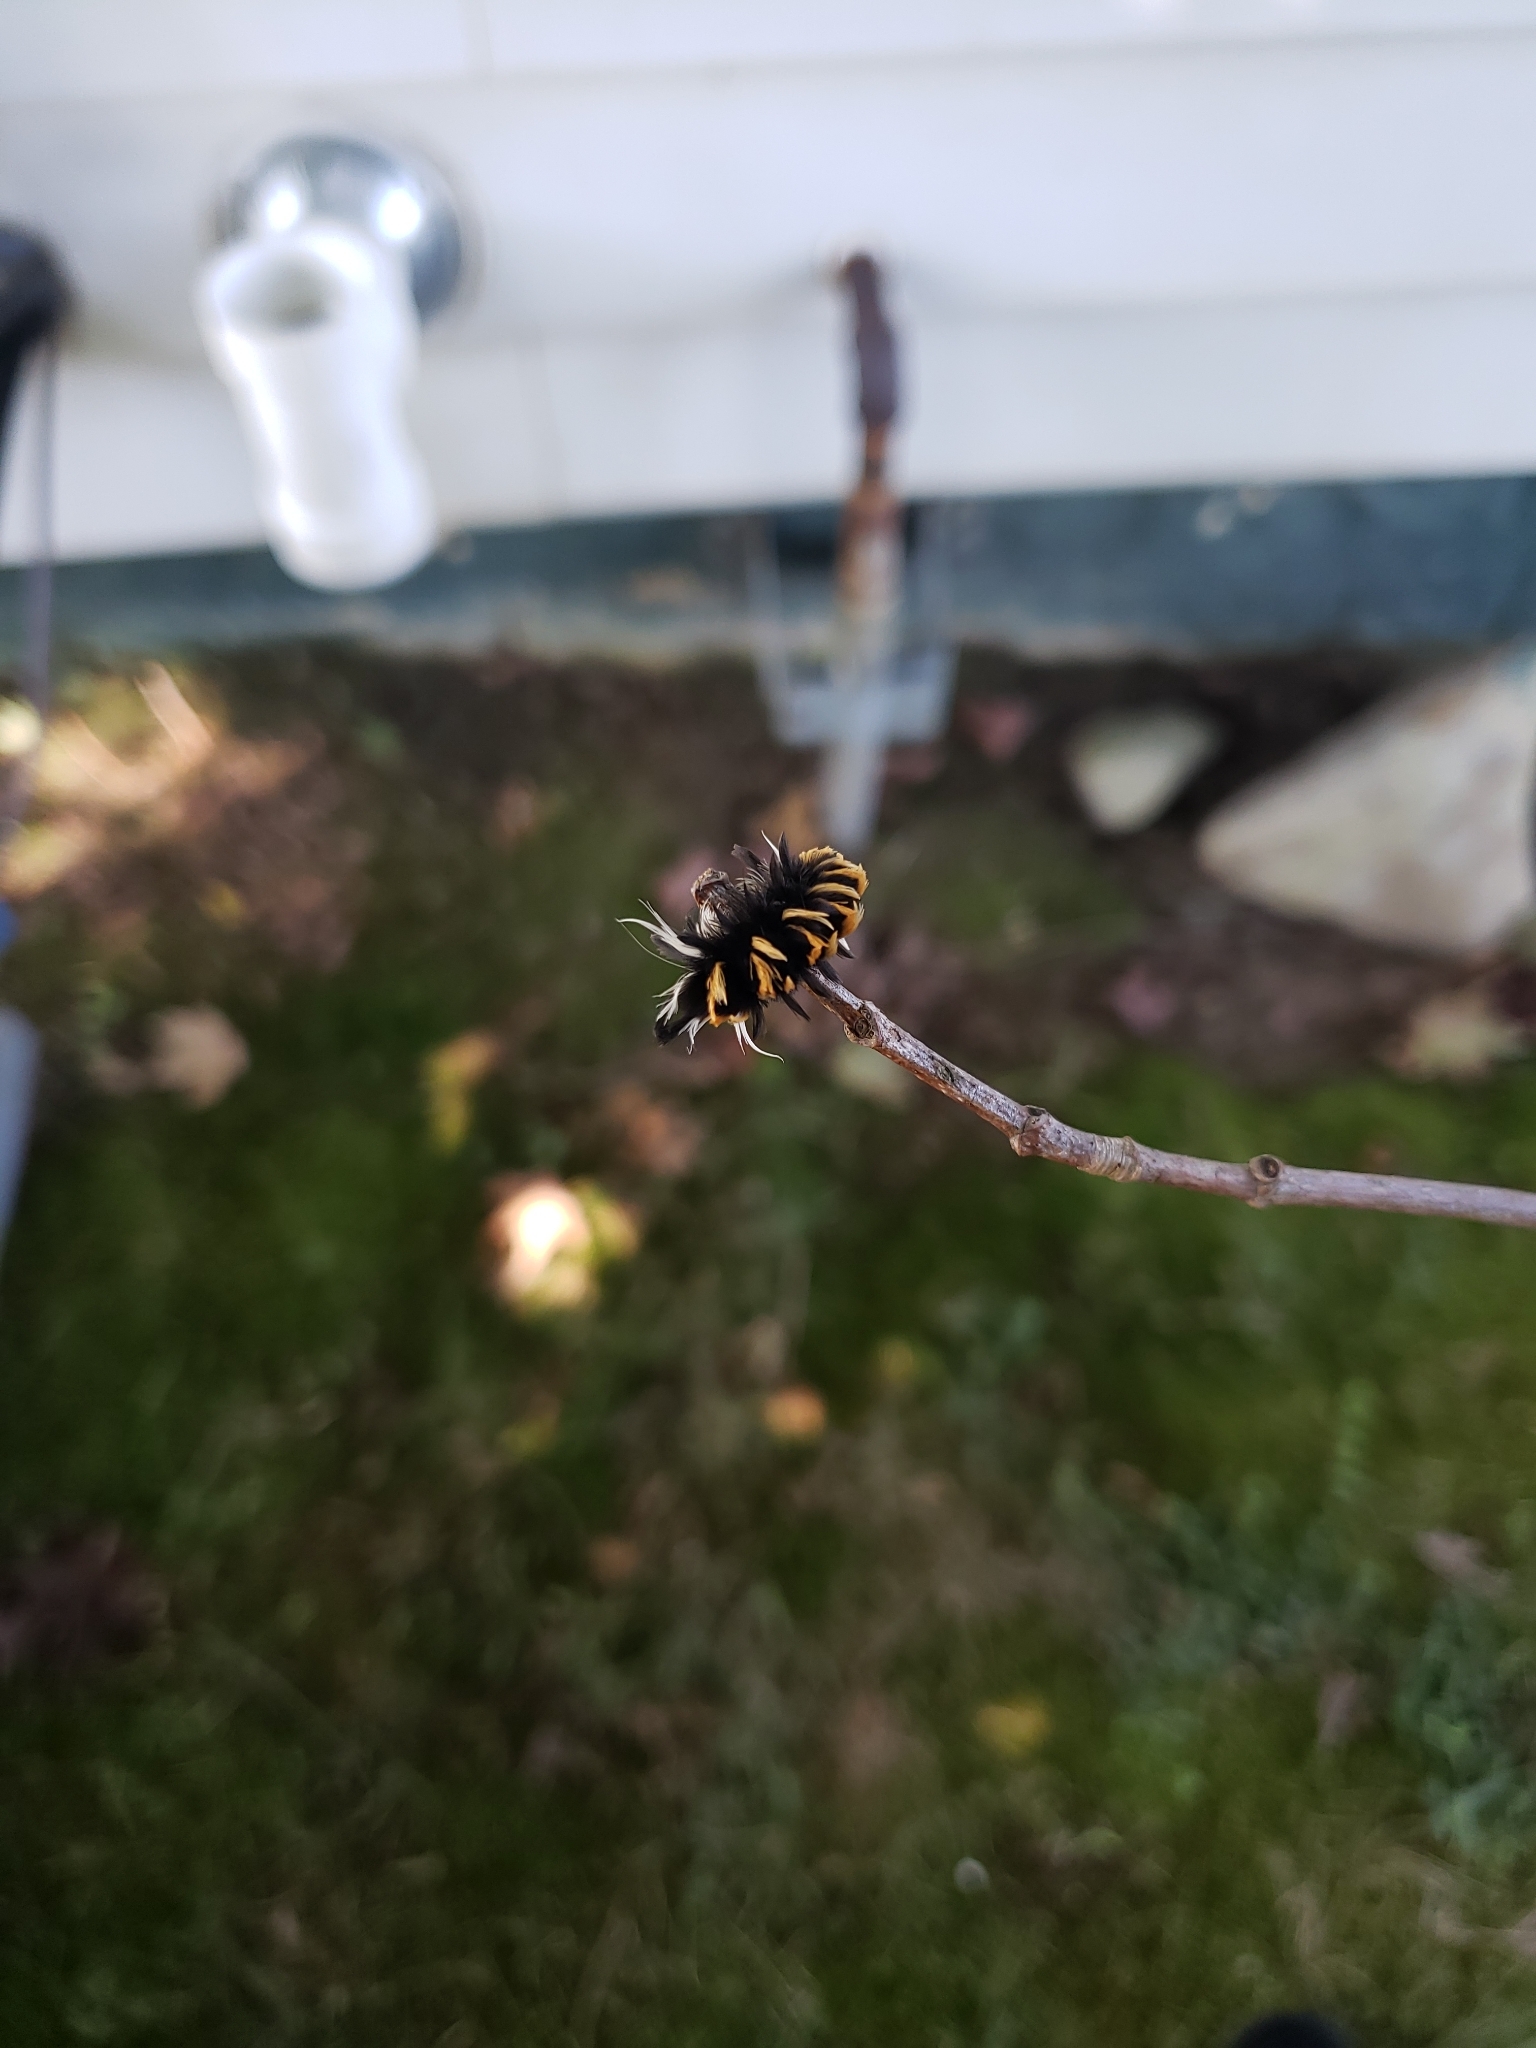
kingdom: Animalia
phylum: Arthropoda
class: Insecta
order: Lepidoptera
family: Erebidae
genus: Euchaetes
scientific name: Euchaetes egle
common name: Milkweed tussock moth
